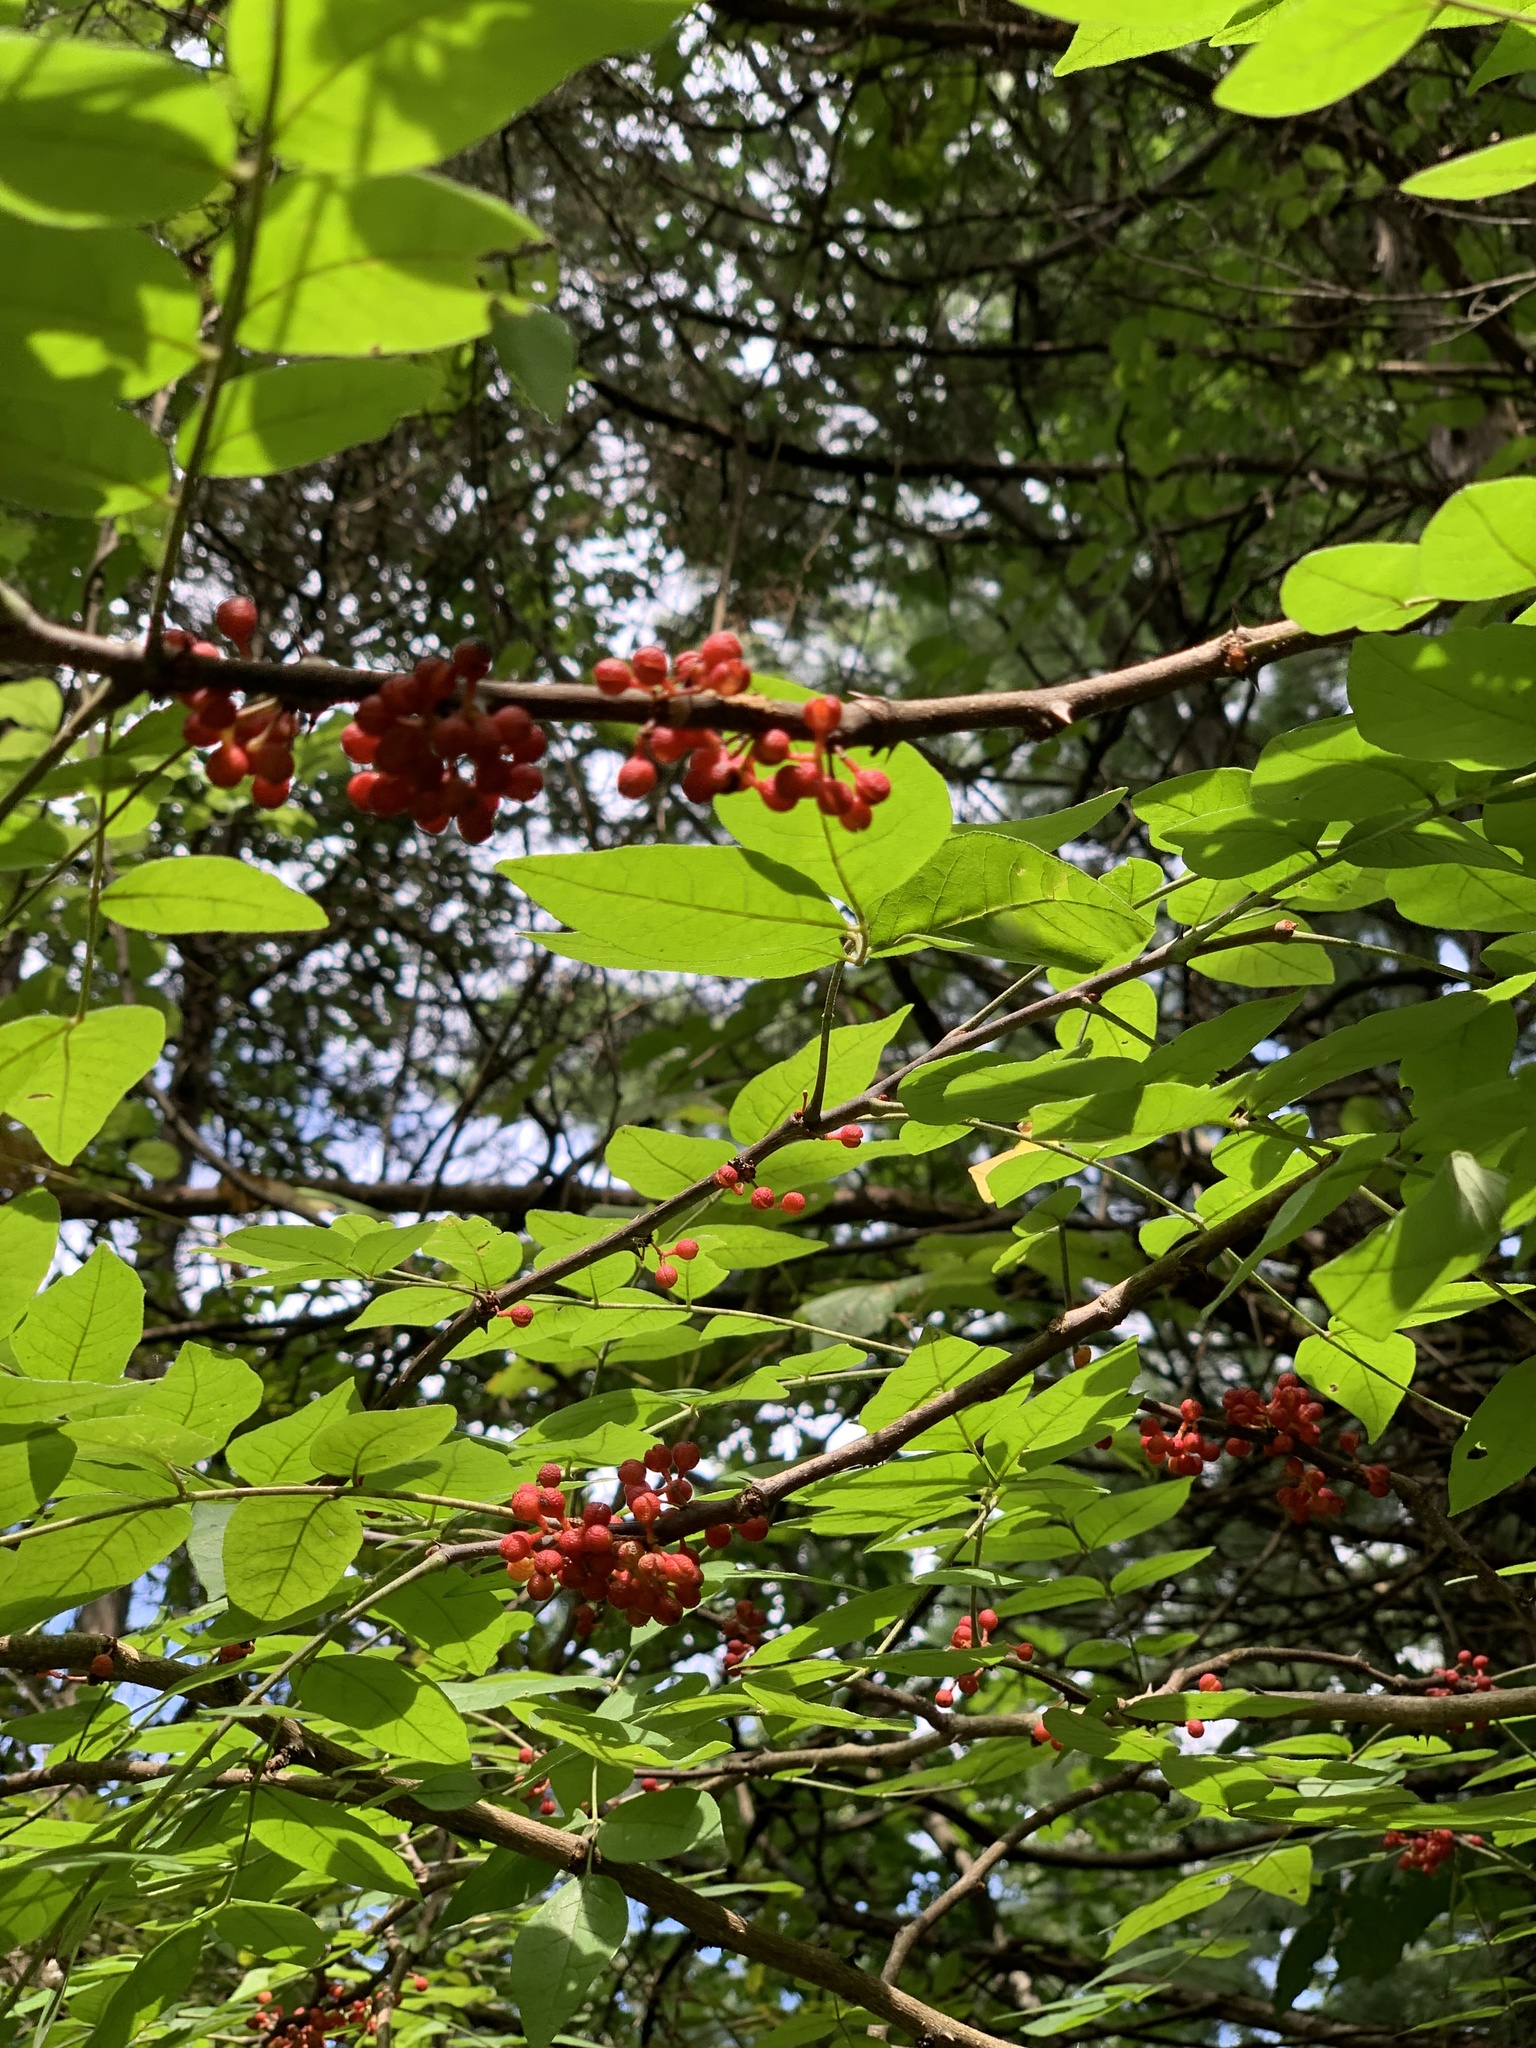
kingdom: Plantae
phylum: Tracheophyta
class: Magnoliopsida
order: Sapindales
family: Rutaceae
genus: Zanthoxylum
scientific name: Zanthoxylum americanum
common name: Northern prickly-ash
